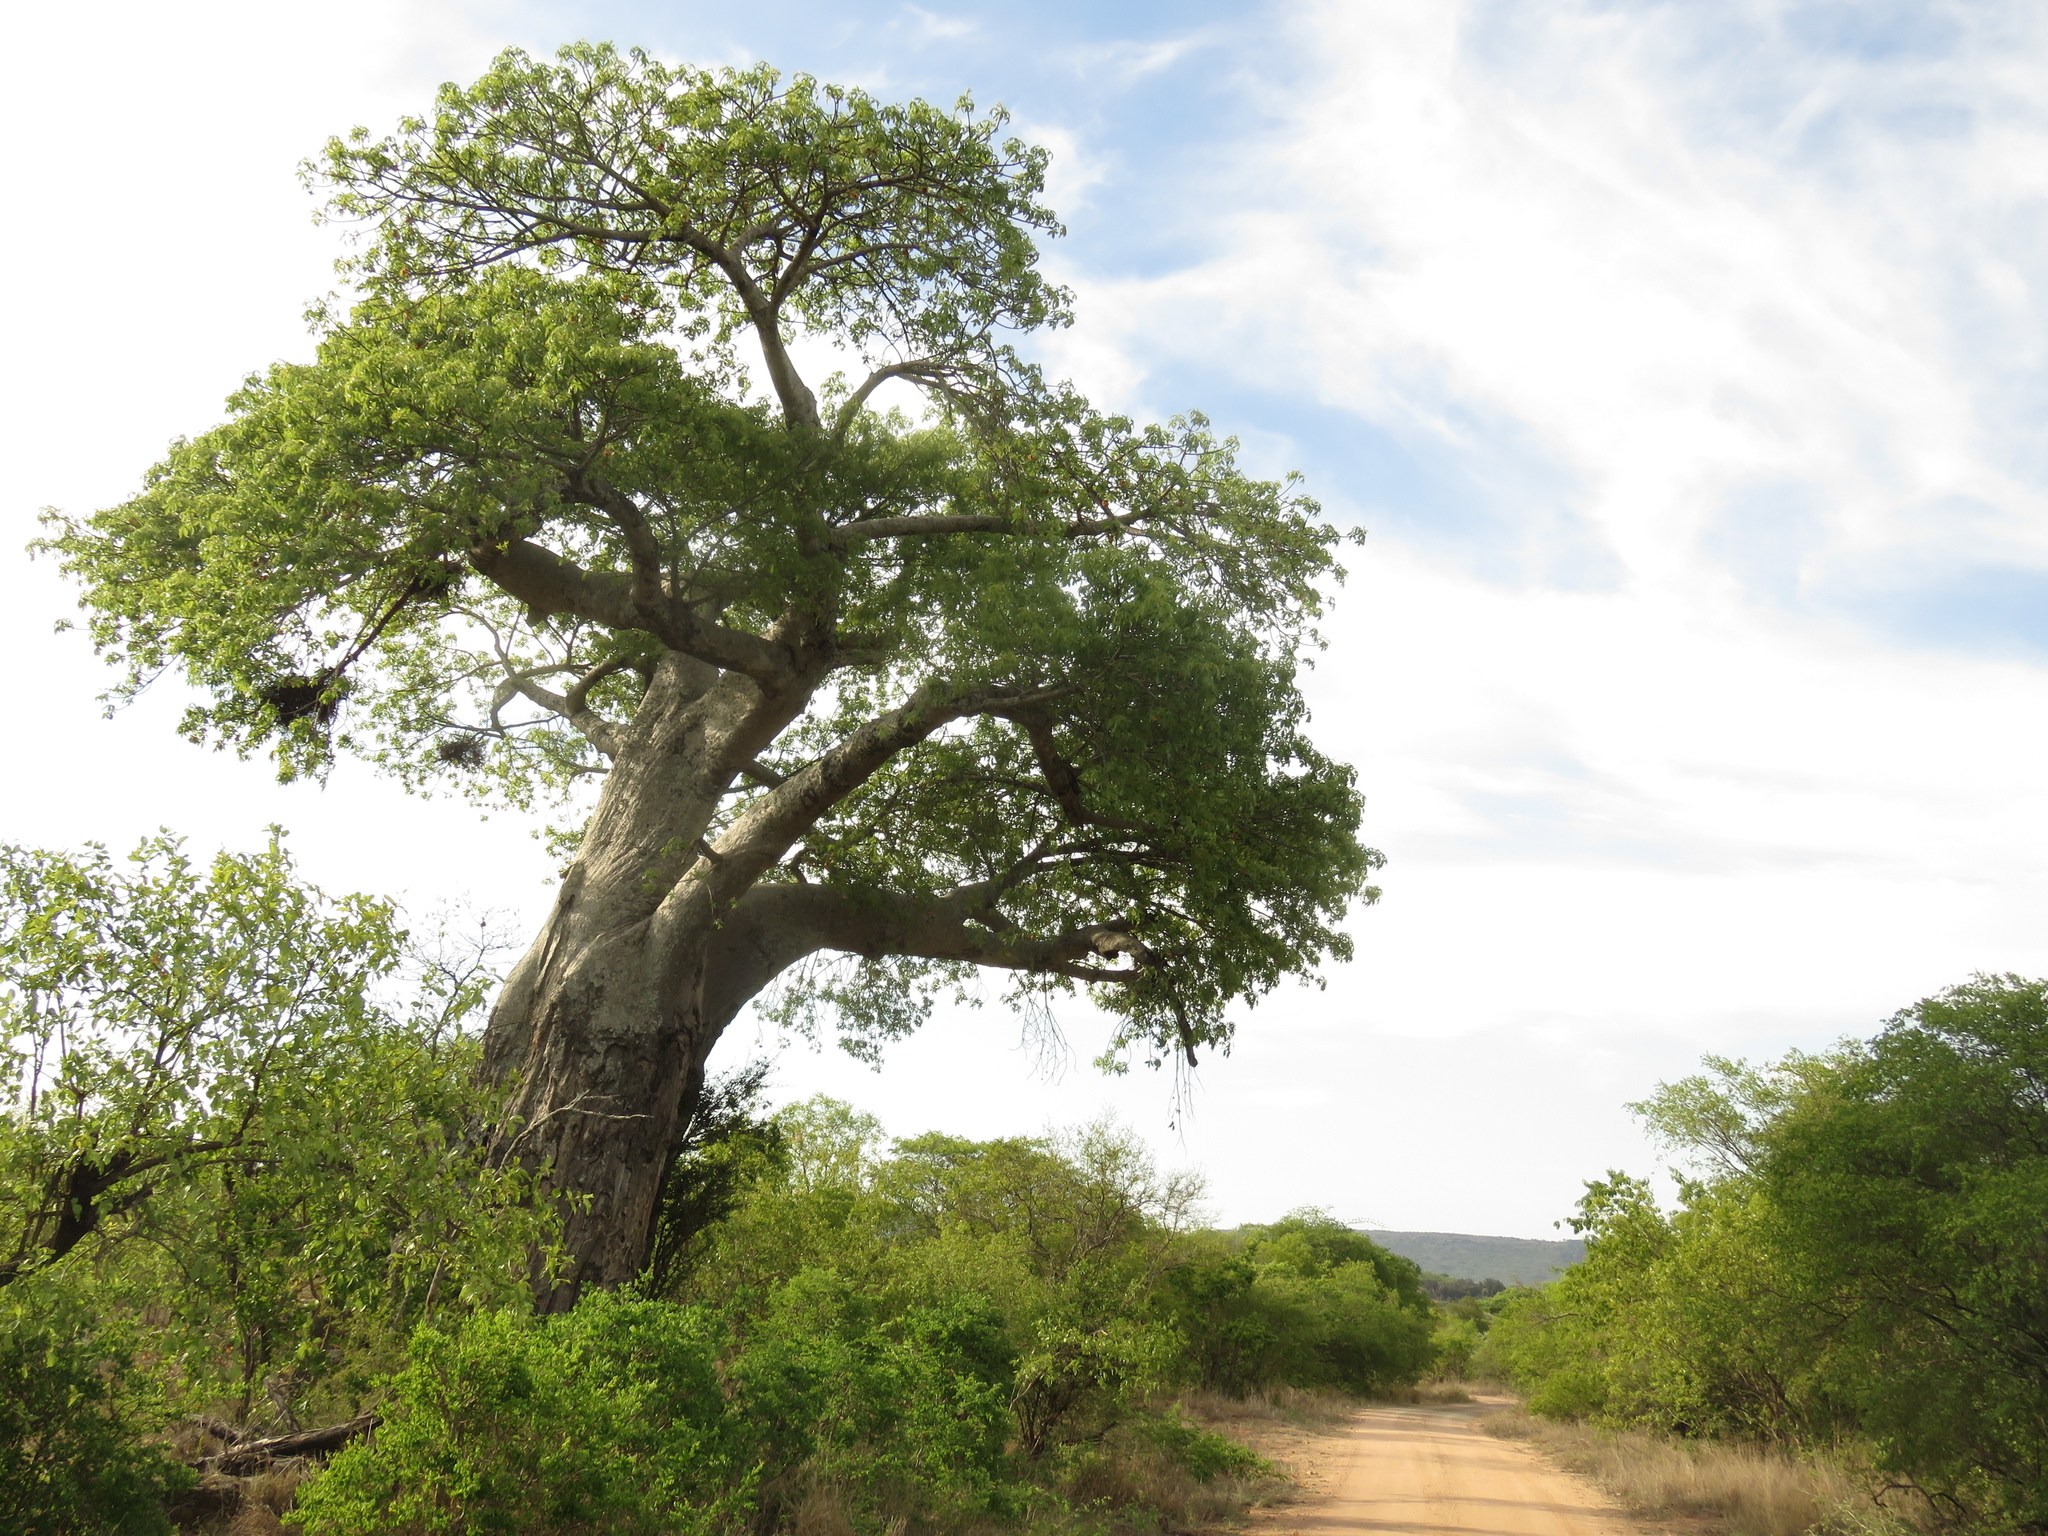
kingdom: Plantae
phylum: Tracheophyta
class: Magnoliopsida
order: Malvales
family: Malvaceae
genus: Adansonia
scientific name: Adansonia digitata
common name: Dead-rat-tree
